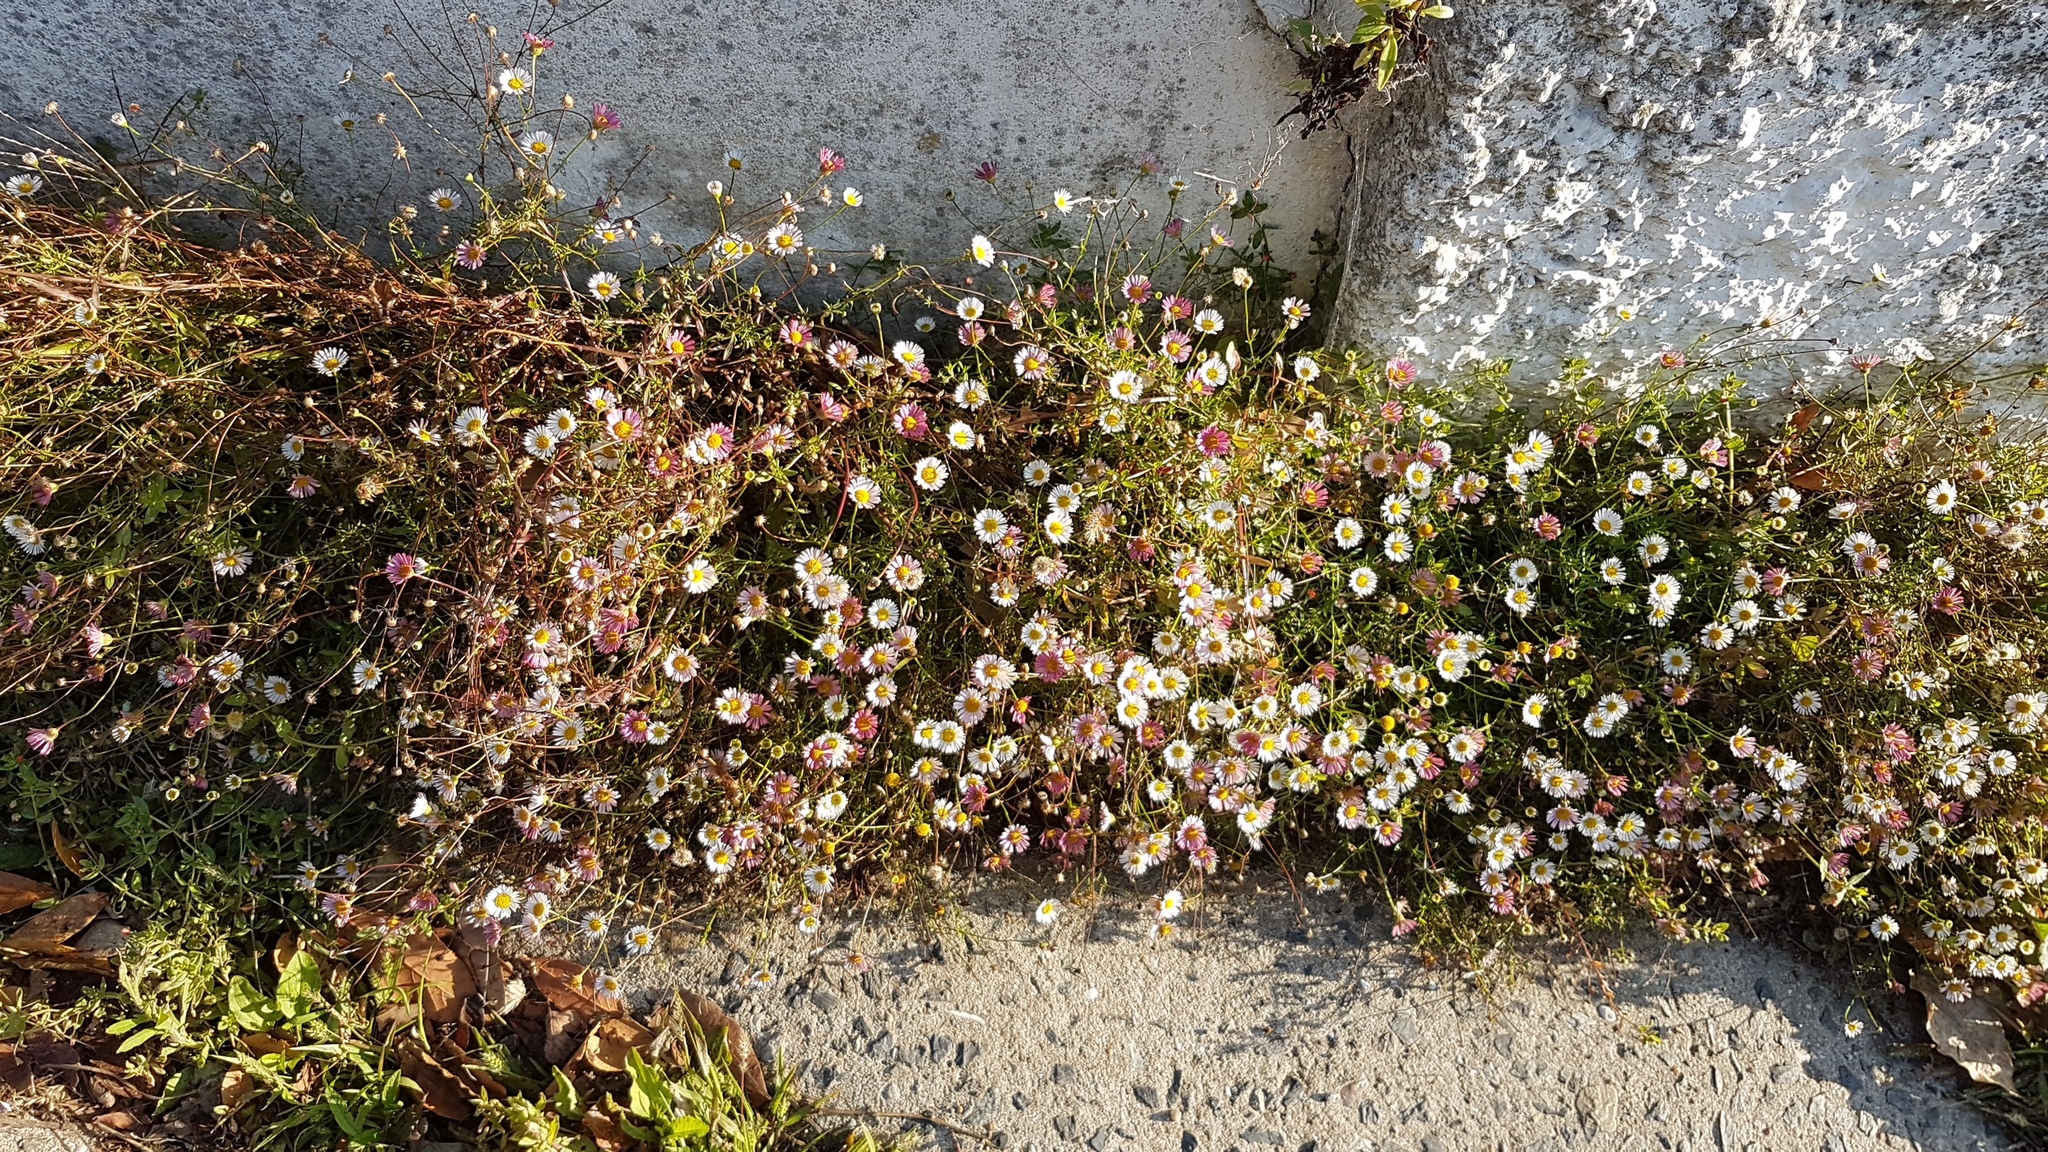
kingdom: Plantae
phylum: Tracheophyta
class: Magnoliopsida
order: Asterales
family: Asteraceae
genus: Erigeron
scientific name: Erigeron karvinskianus
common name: Mexican fleabane
